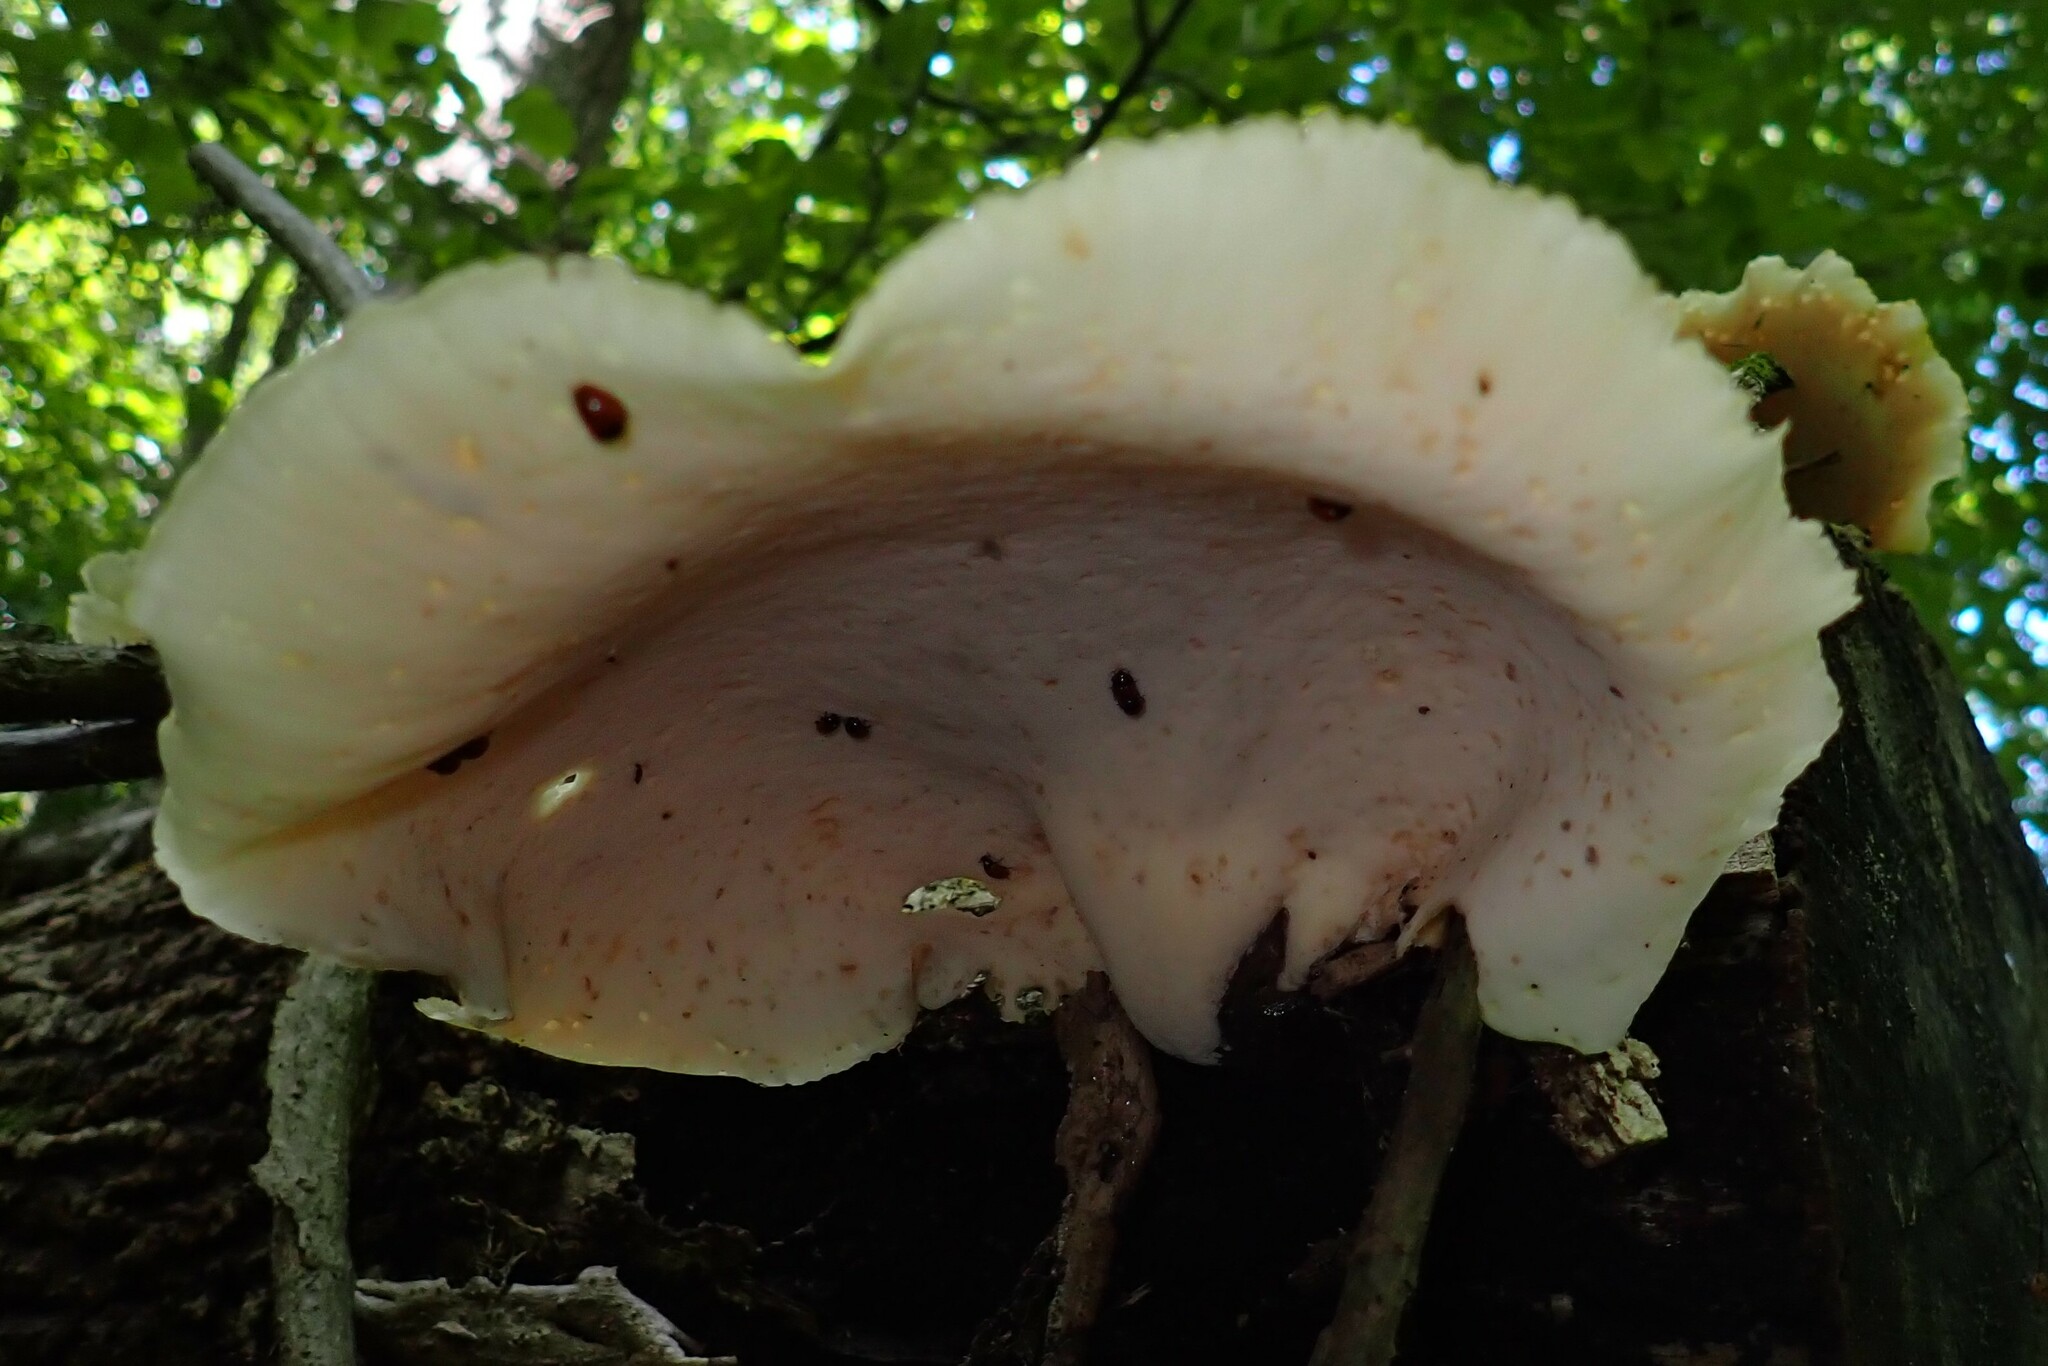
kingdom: Fungi
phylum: Basidiomycota
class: Agaricomycetes
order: Polyporales
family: Polyporaceae
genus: Picipes
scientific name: Picipes badius
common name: Bay polypore
